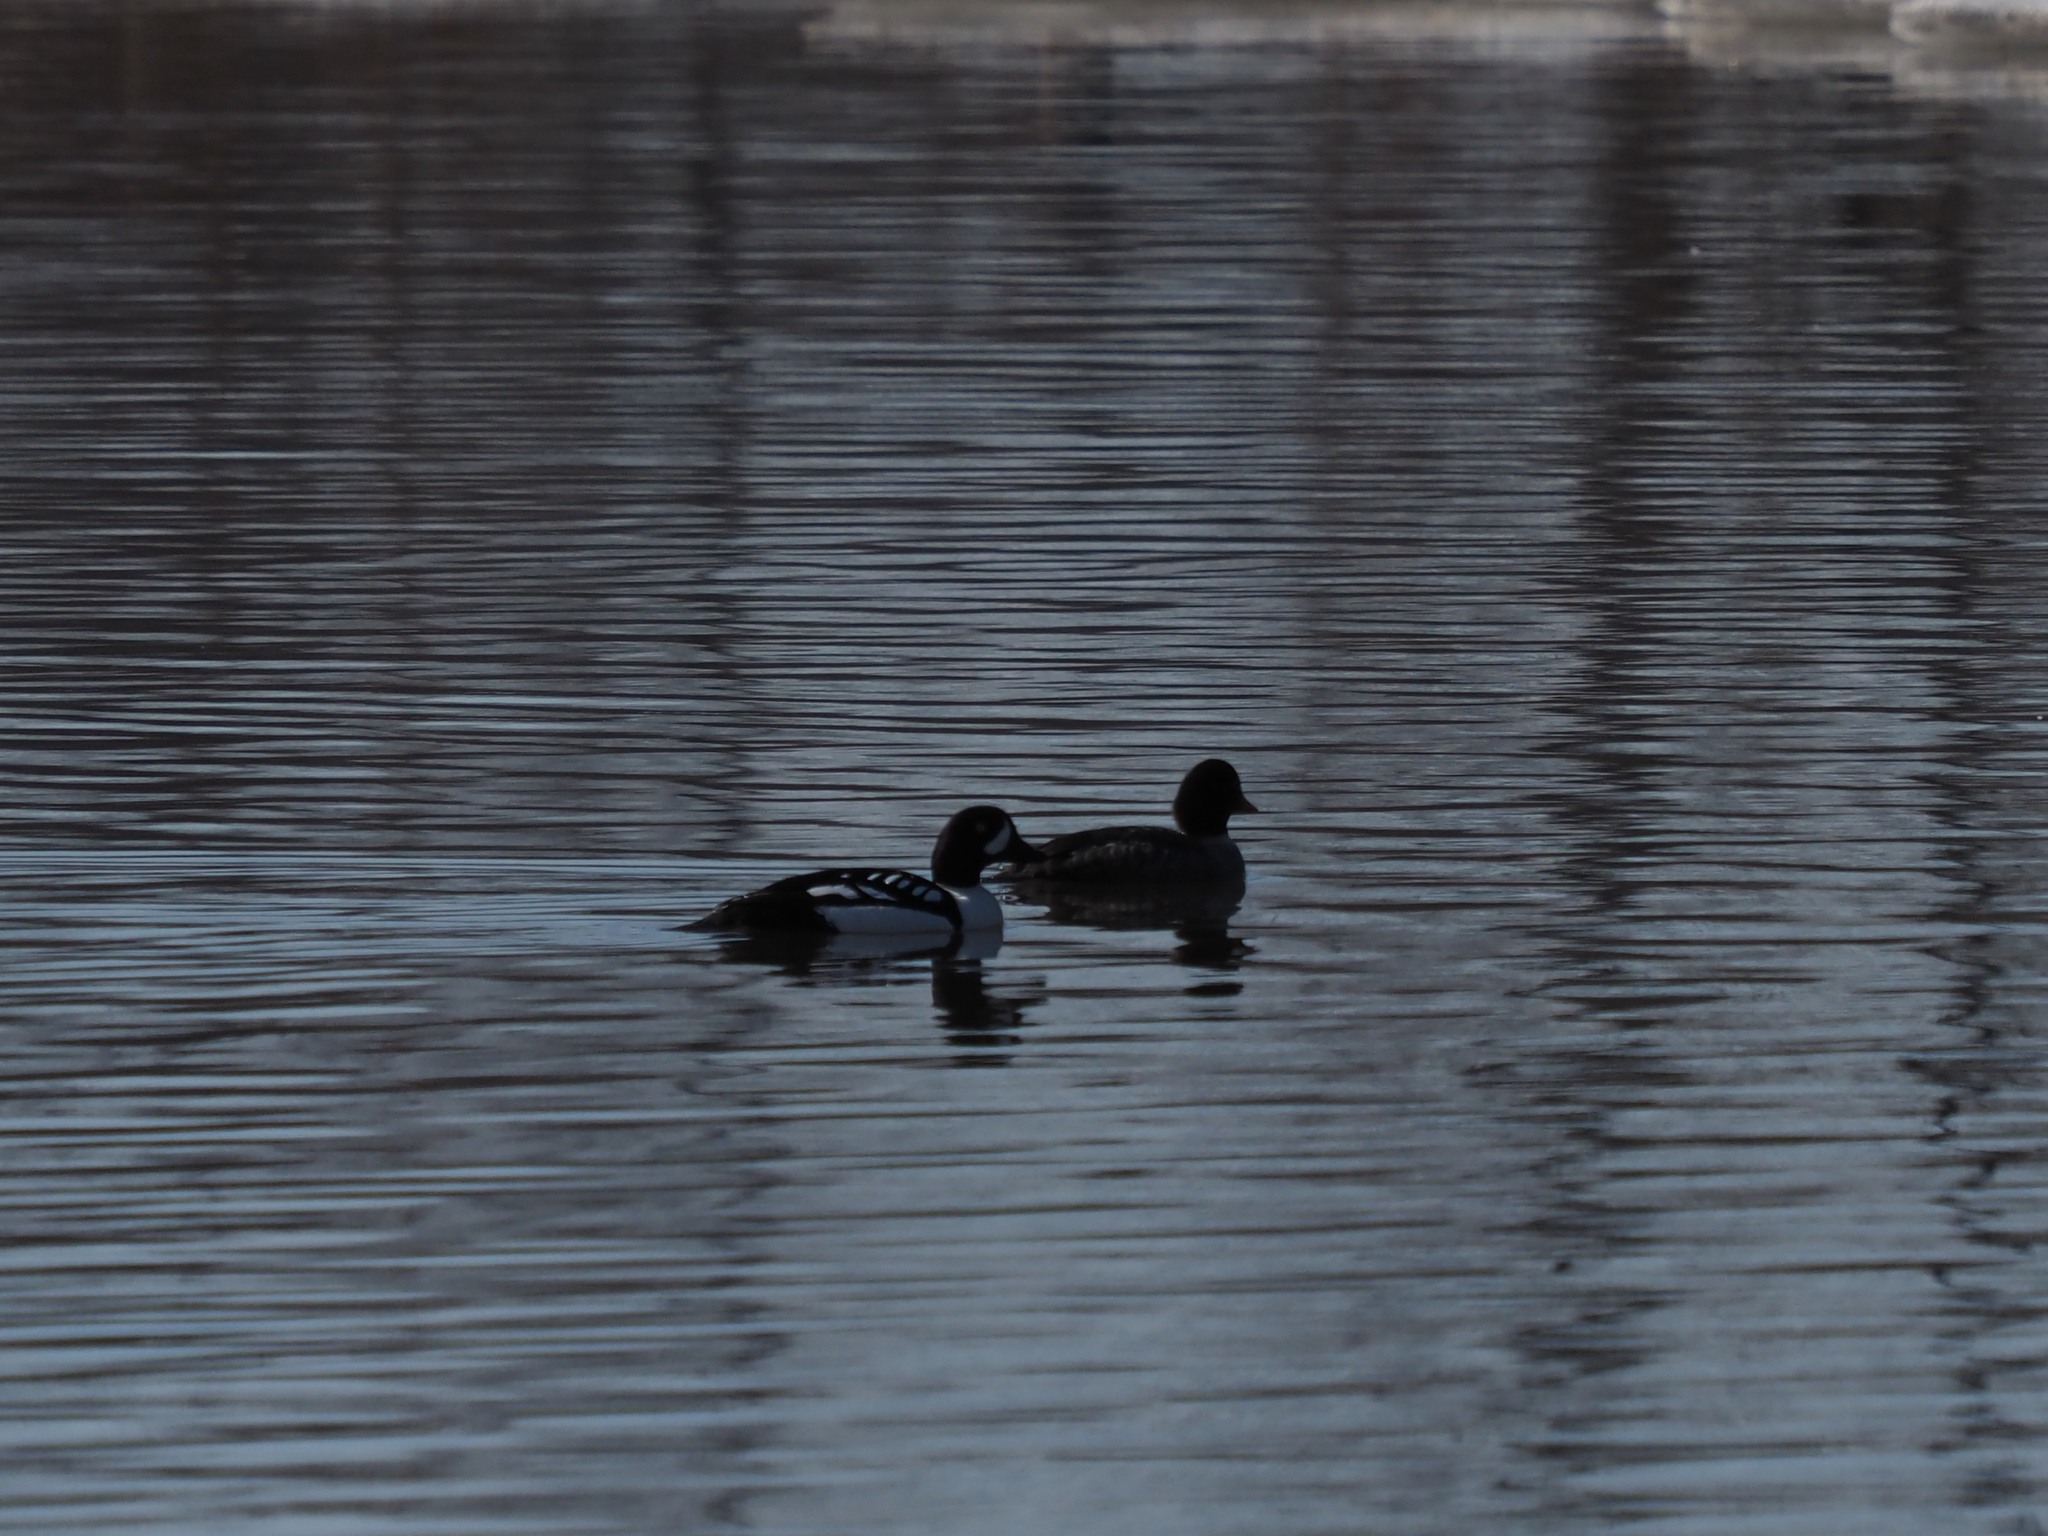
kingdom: Animalia
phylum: Chordata
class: Aves
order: Anseriformes
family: Anatidae
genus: Bucephala
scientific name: Bucephala islandica
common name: Barrow's goldeneye
